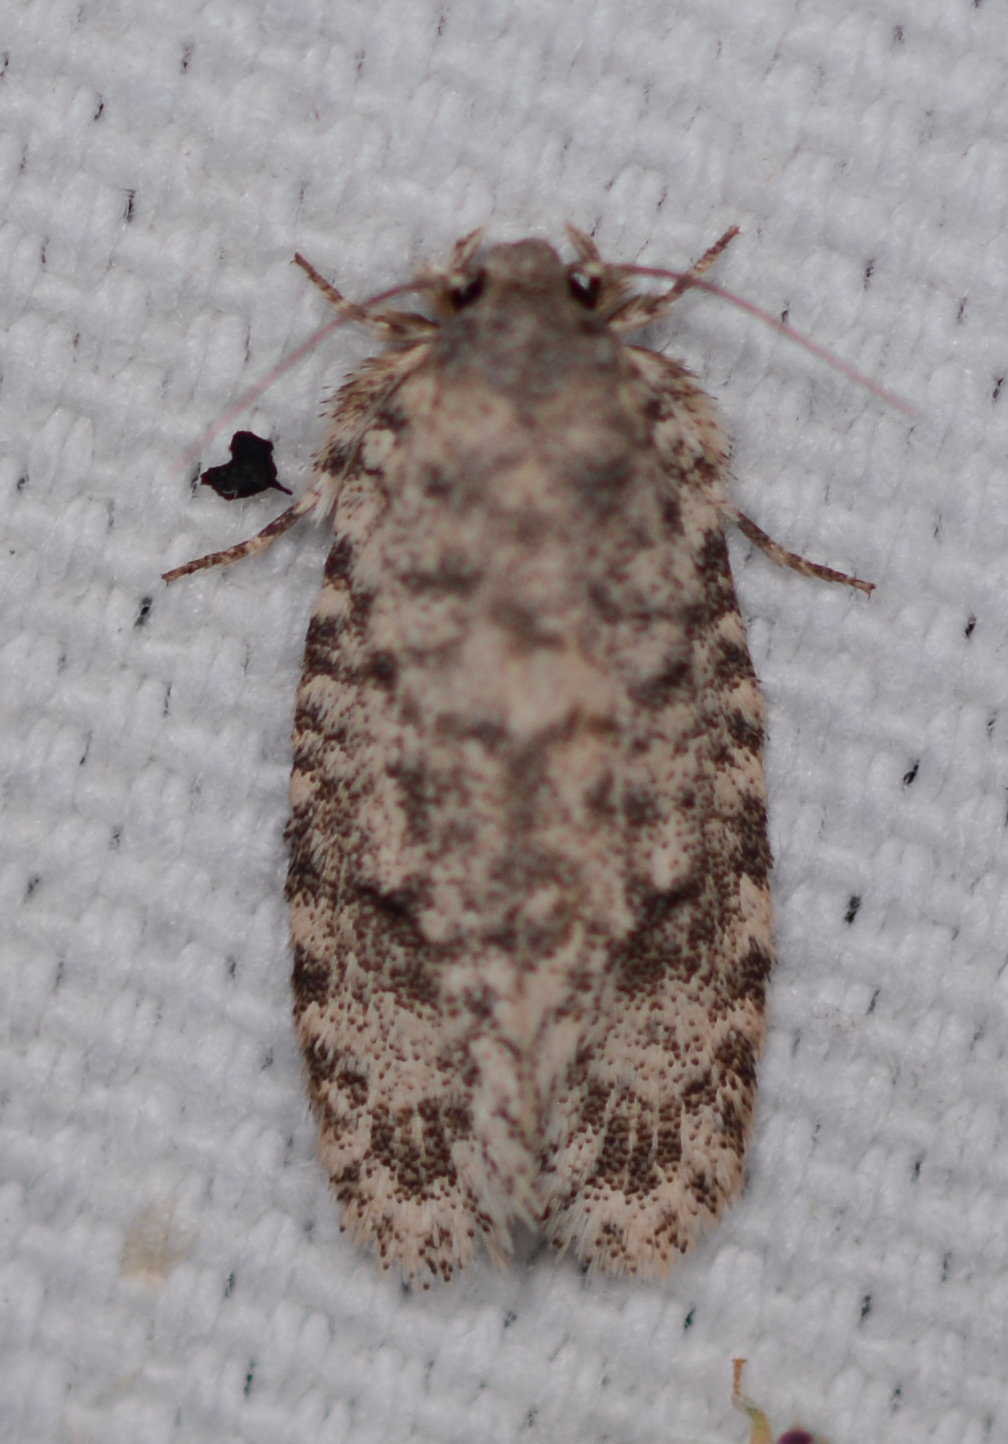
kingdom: Animalia
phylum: Arthropoda
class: Insecta
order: Lepidoptera
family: Tineidae
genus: Tiquadra
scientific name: Tiquadra inscitella
